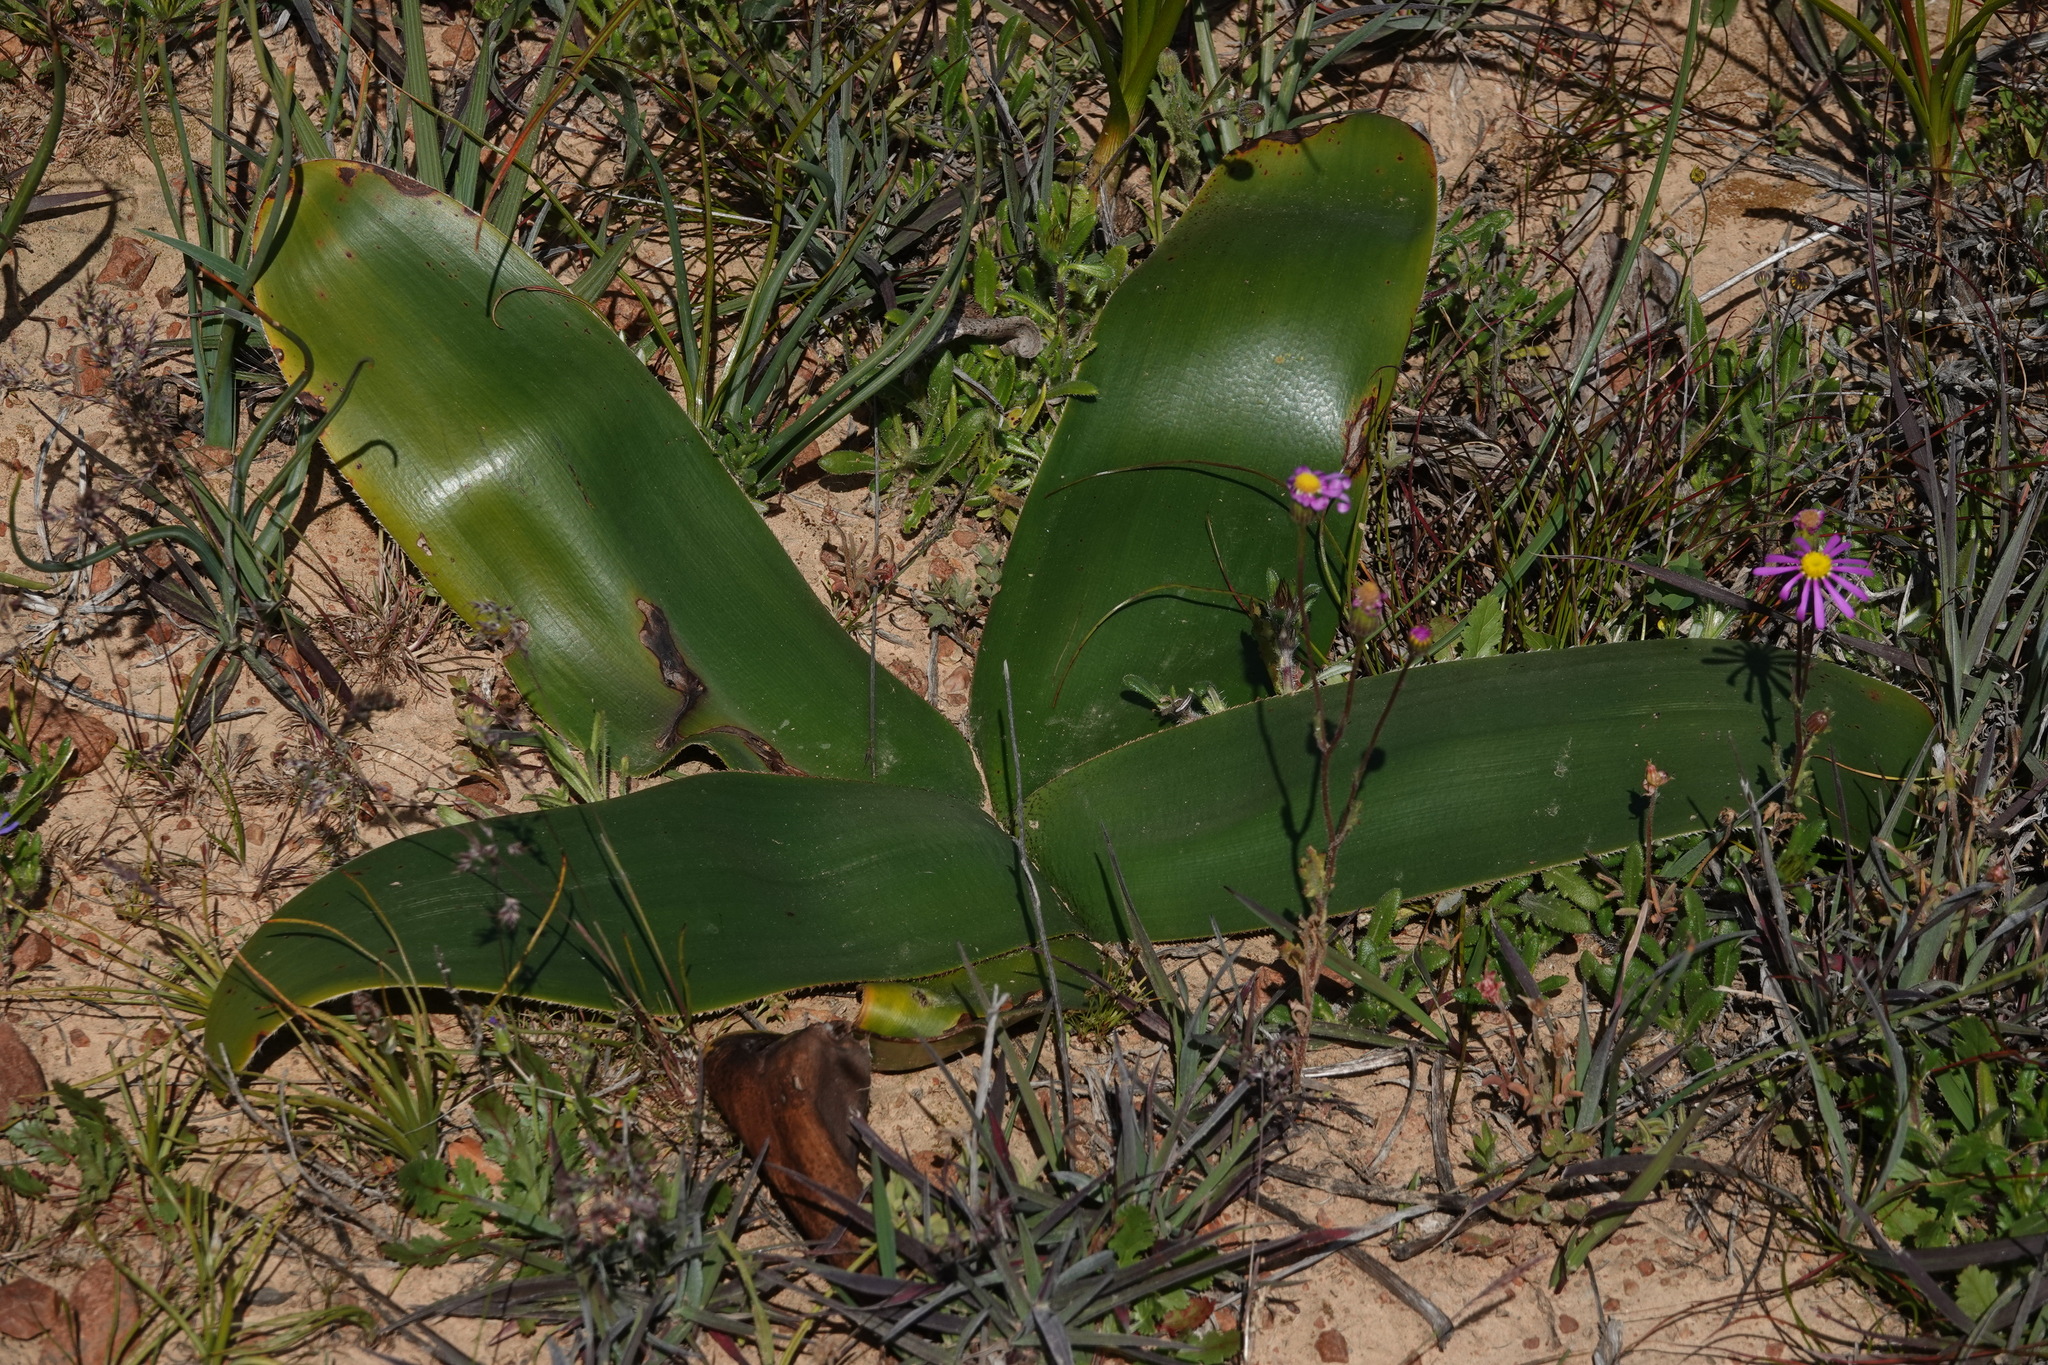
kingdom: Plantae
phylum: Tracheophyta
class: Liliopsida
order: Asparagales
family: Amaryllidaceae
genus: Crossyne
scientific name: Crossyne flava
